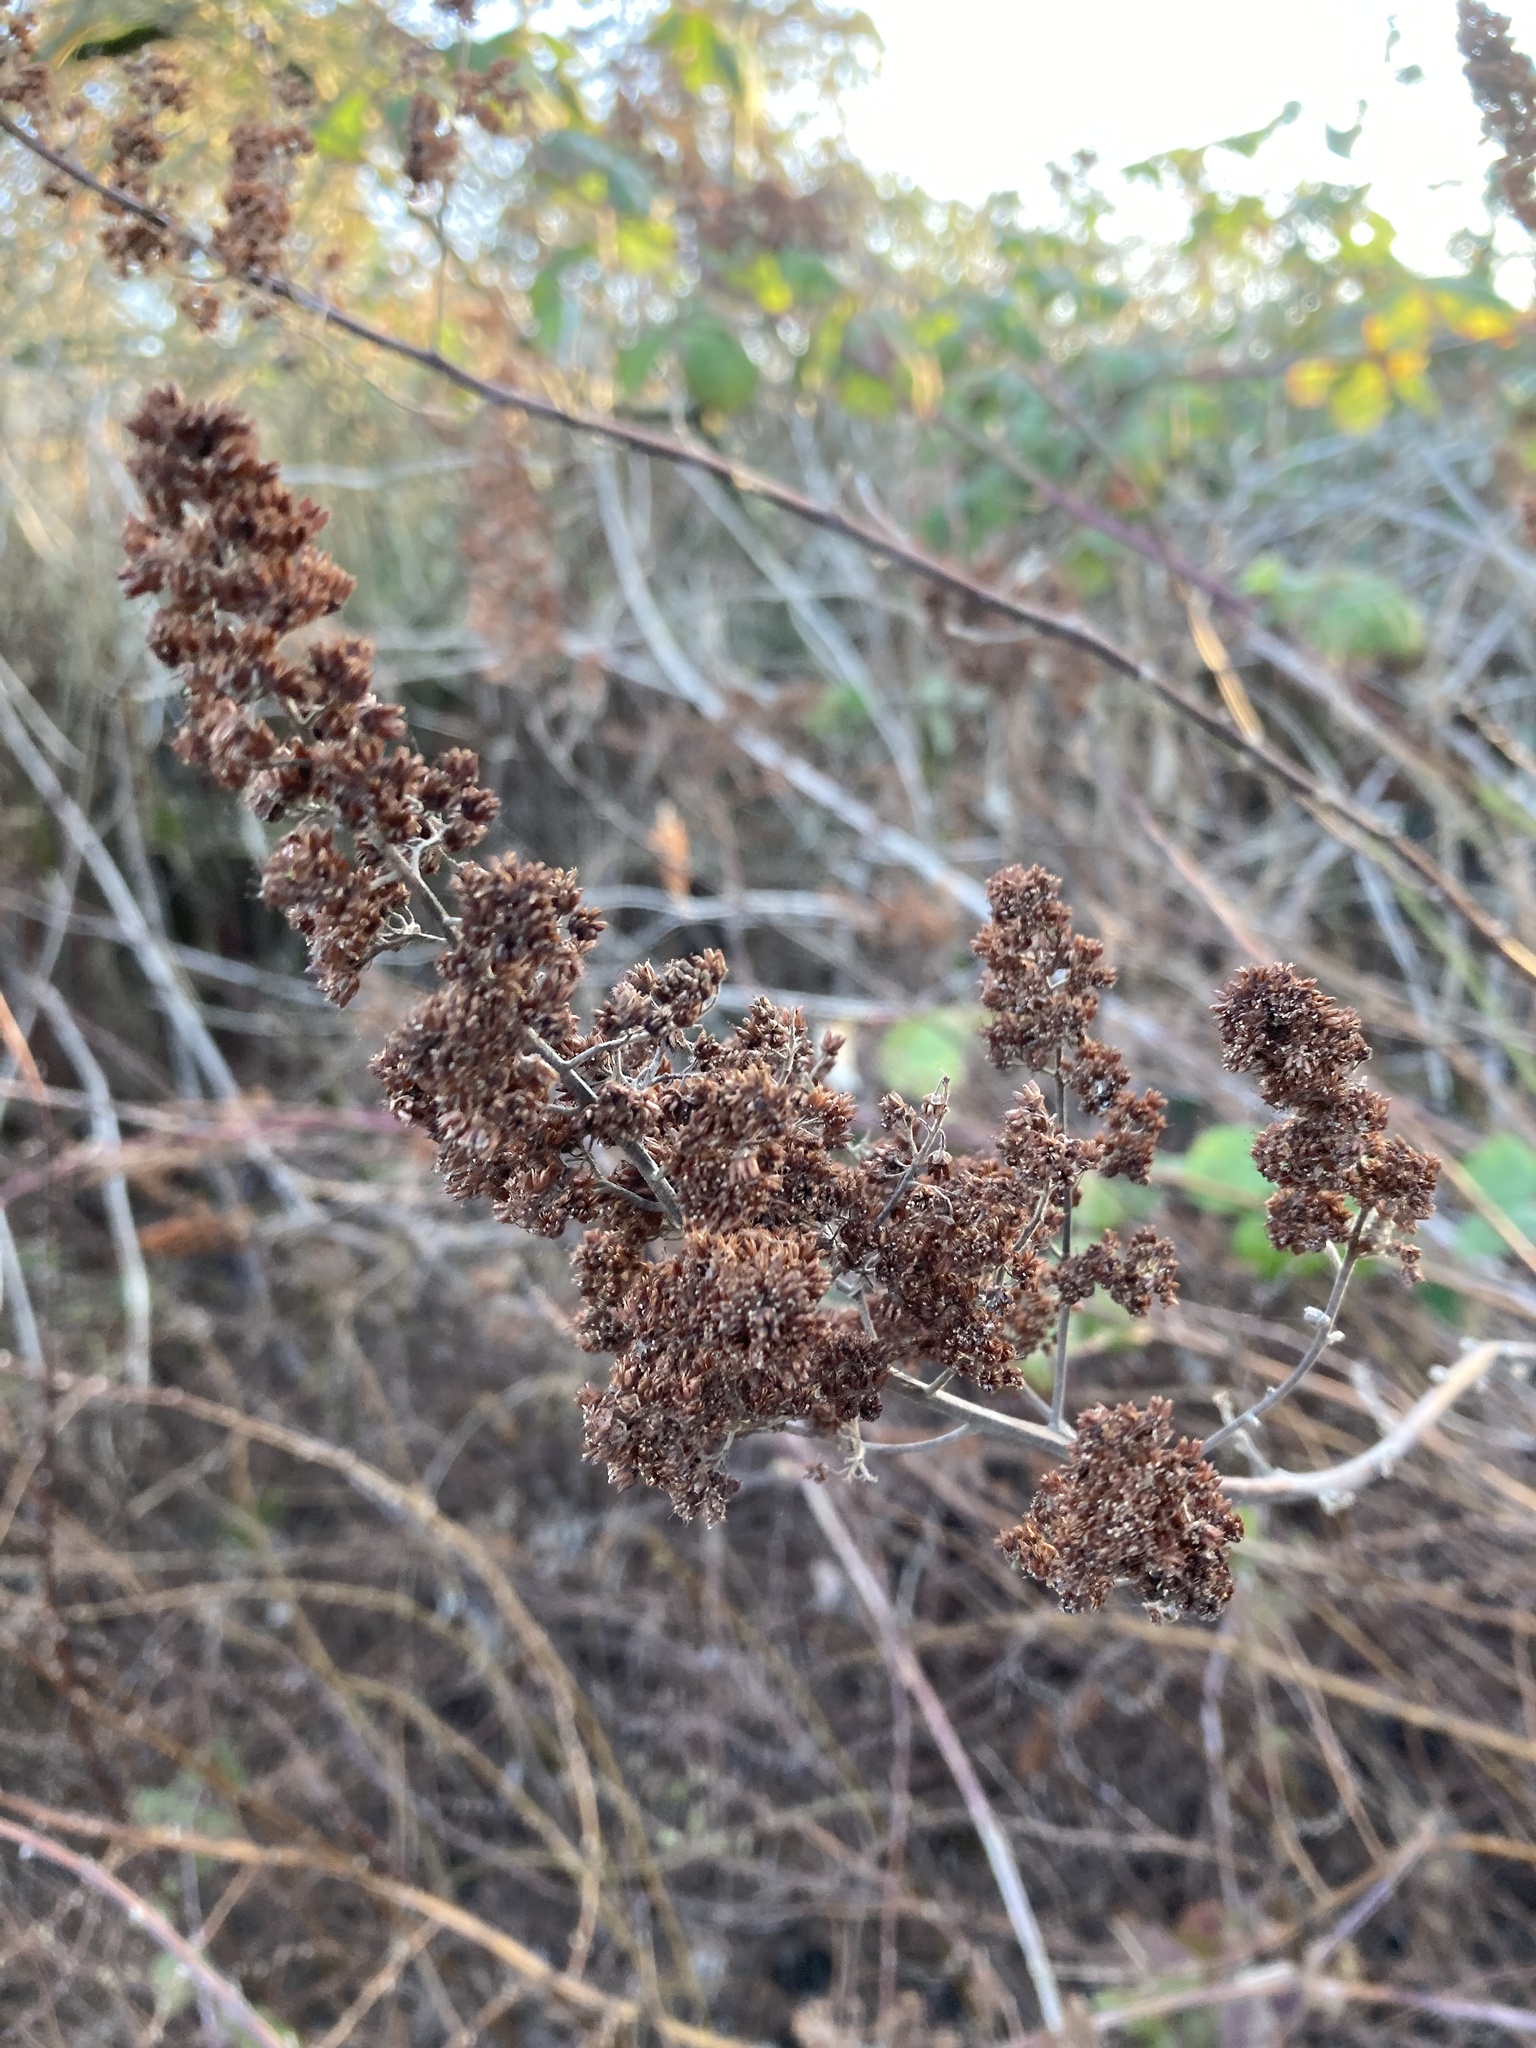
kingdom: Plantae
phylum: Tracheophyta
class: Magnoliopsida
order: Rosales
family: Rosaceae
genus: Spiraea
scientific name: Spiraea douglasii
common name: Steeplebush
